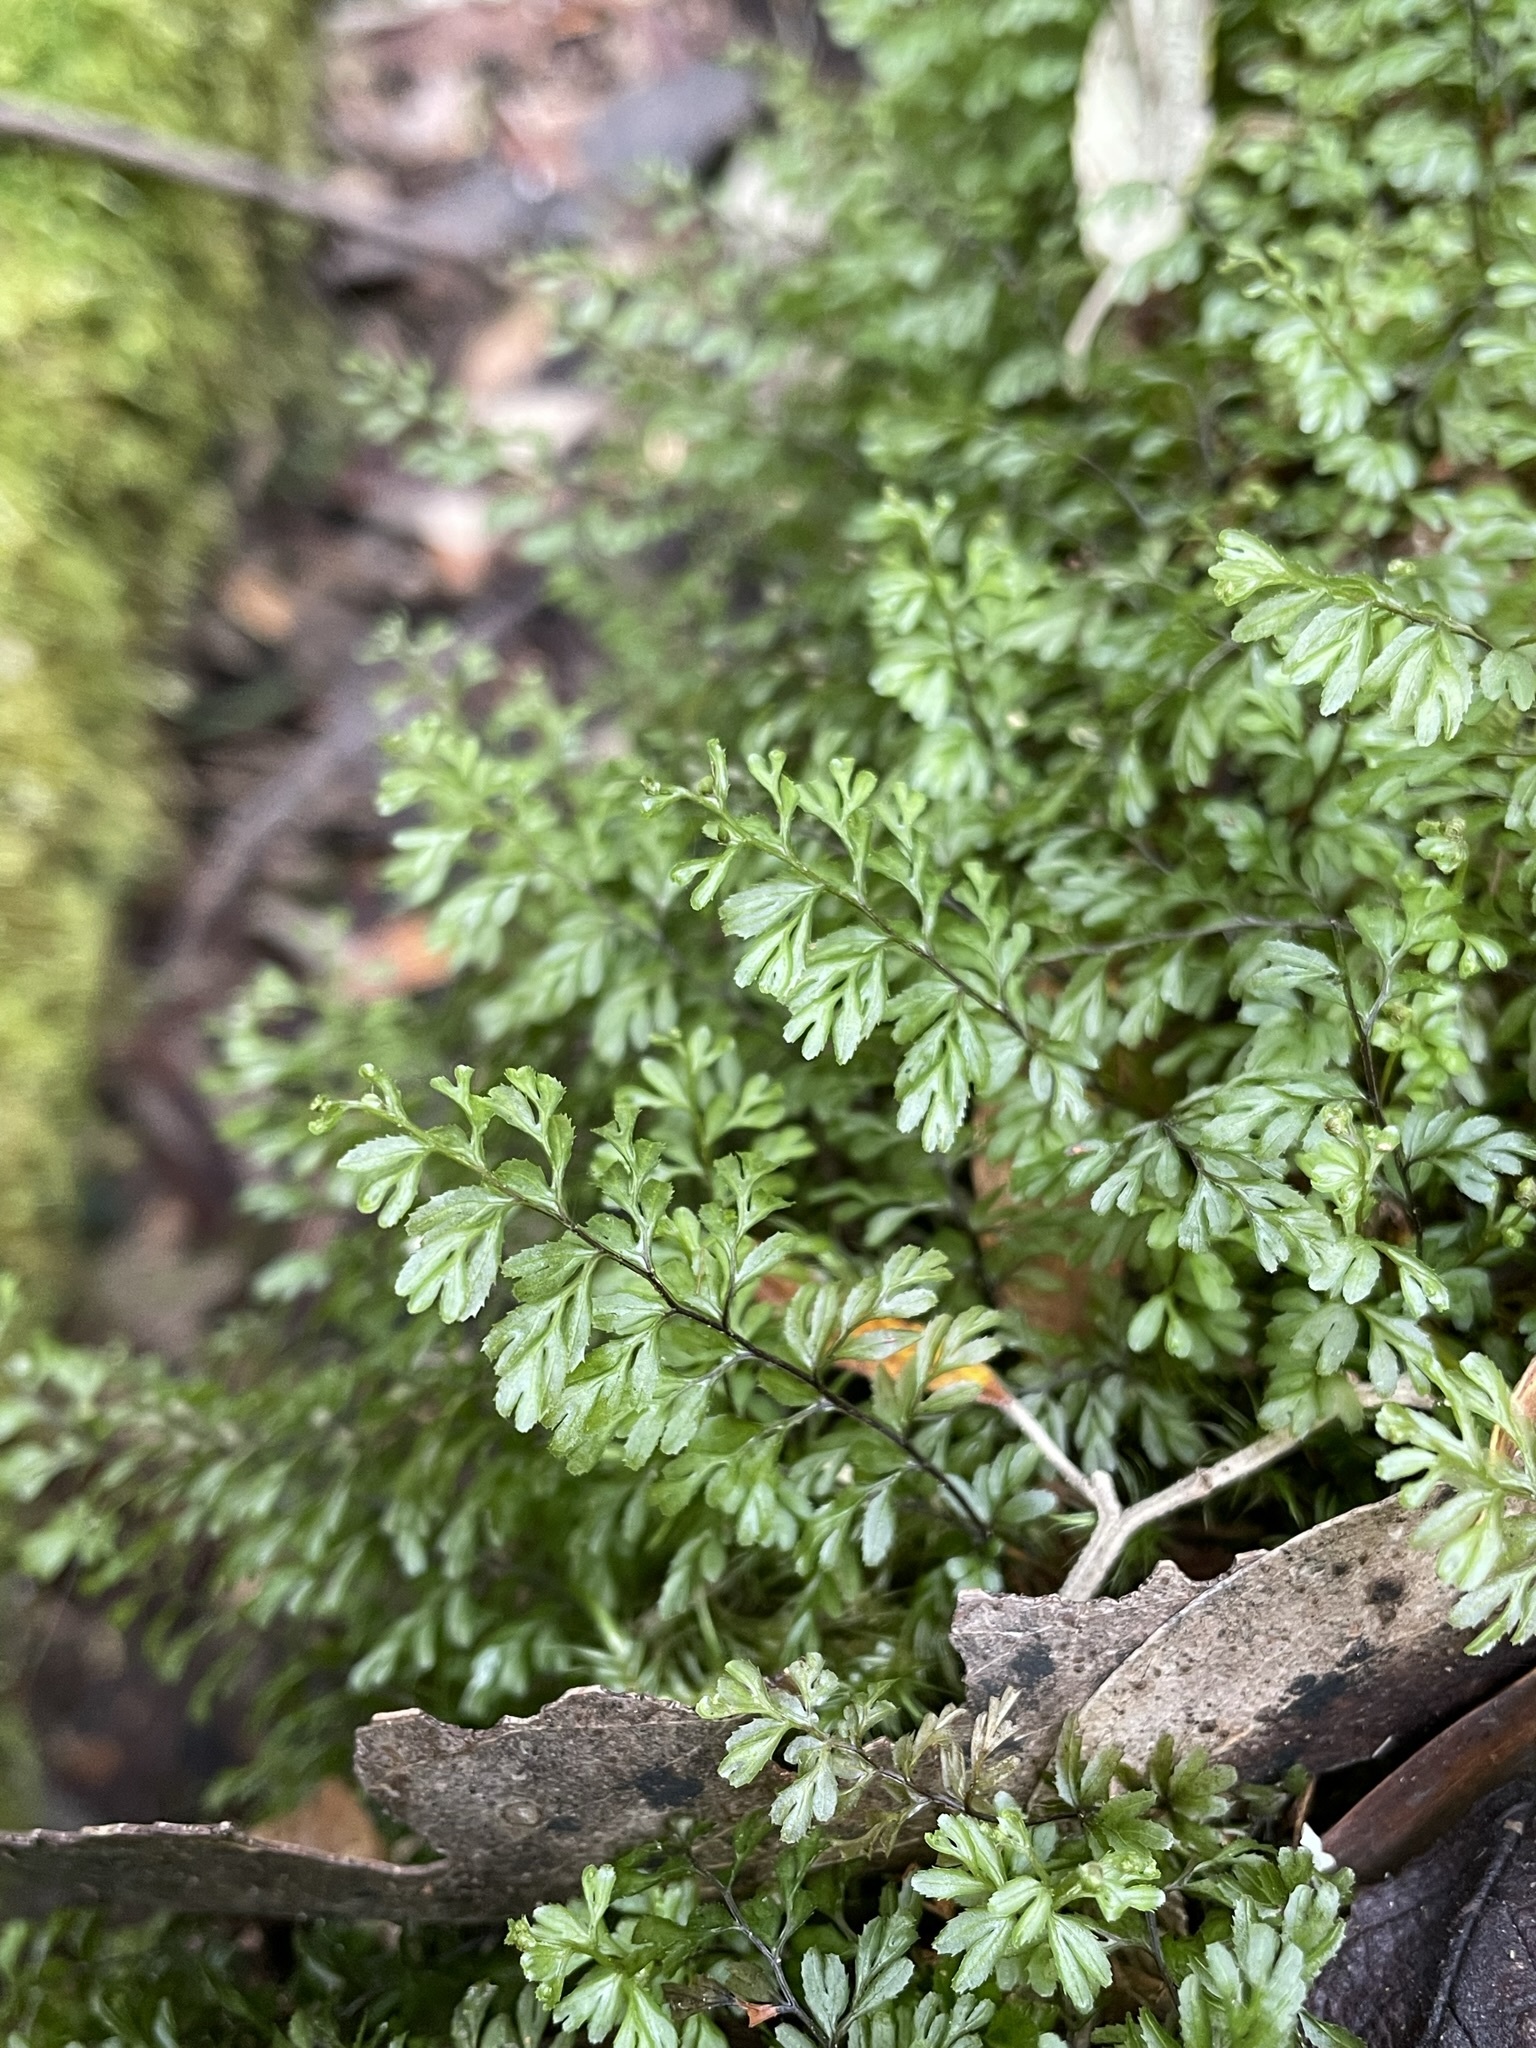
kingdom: Plantae
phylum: Tracheophyta
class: Polypodiopsida
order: Hymenophyllales
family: Hymenophyllaceae
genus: Hymenophyllum
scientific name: Hymenophyllum cupressiforme
